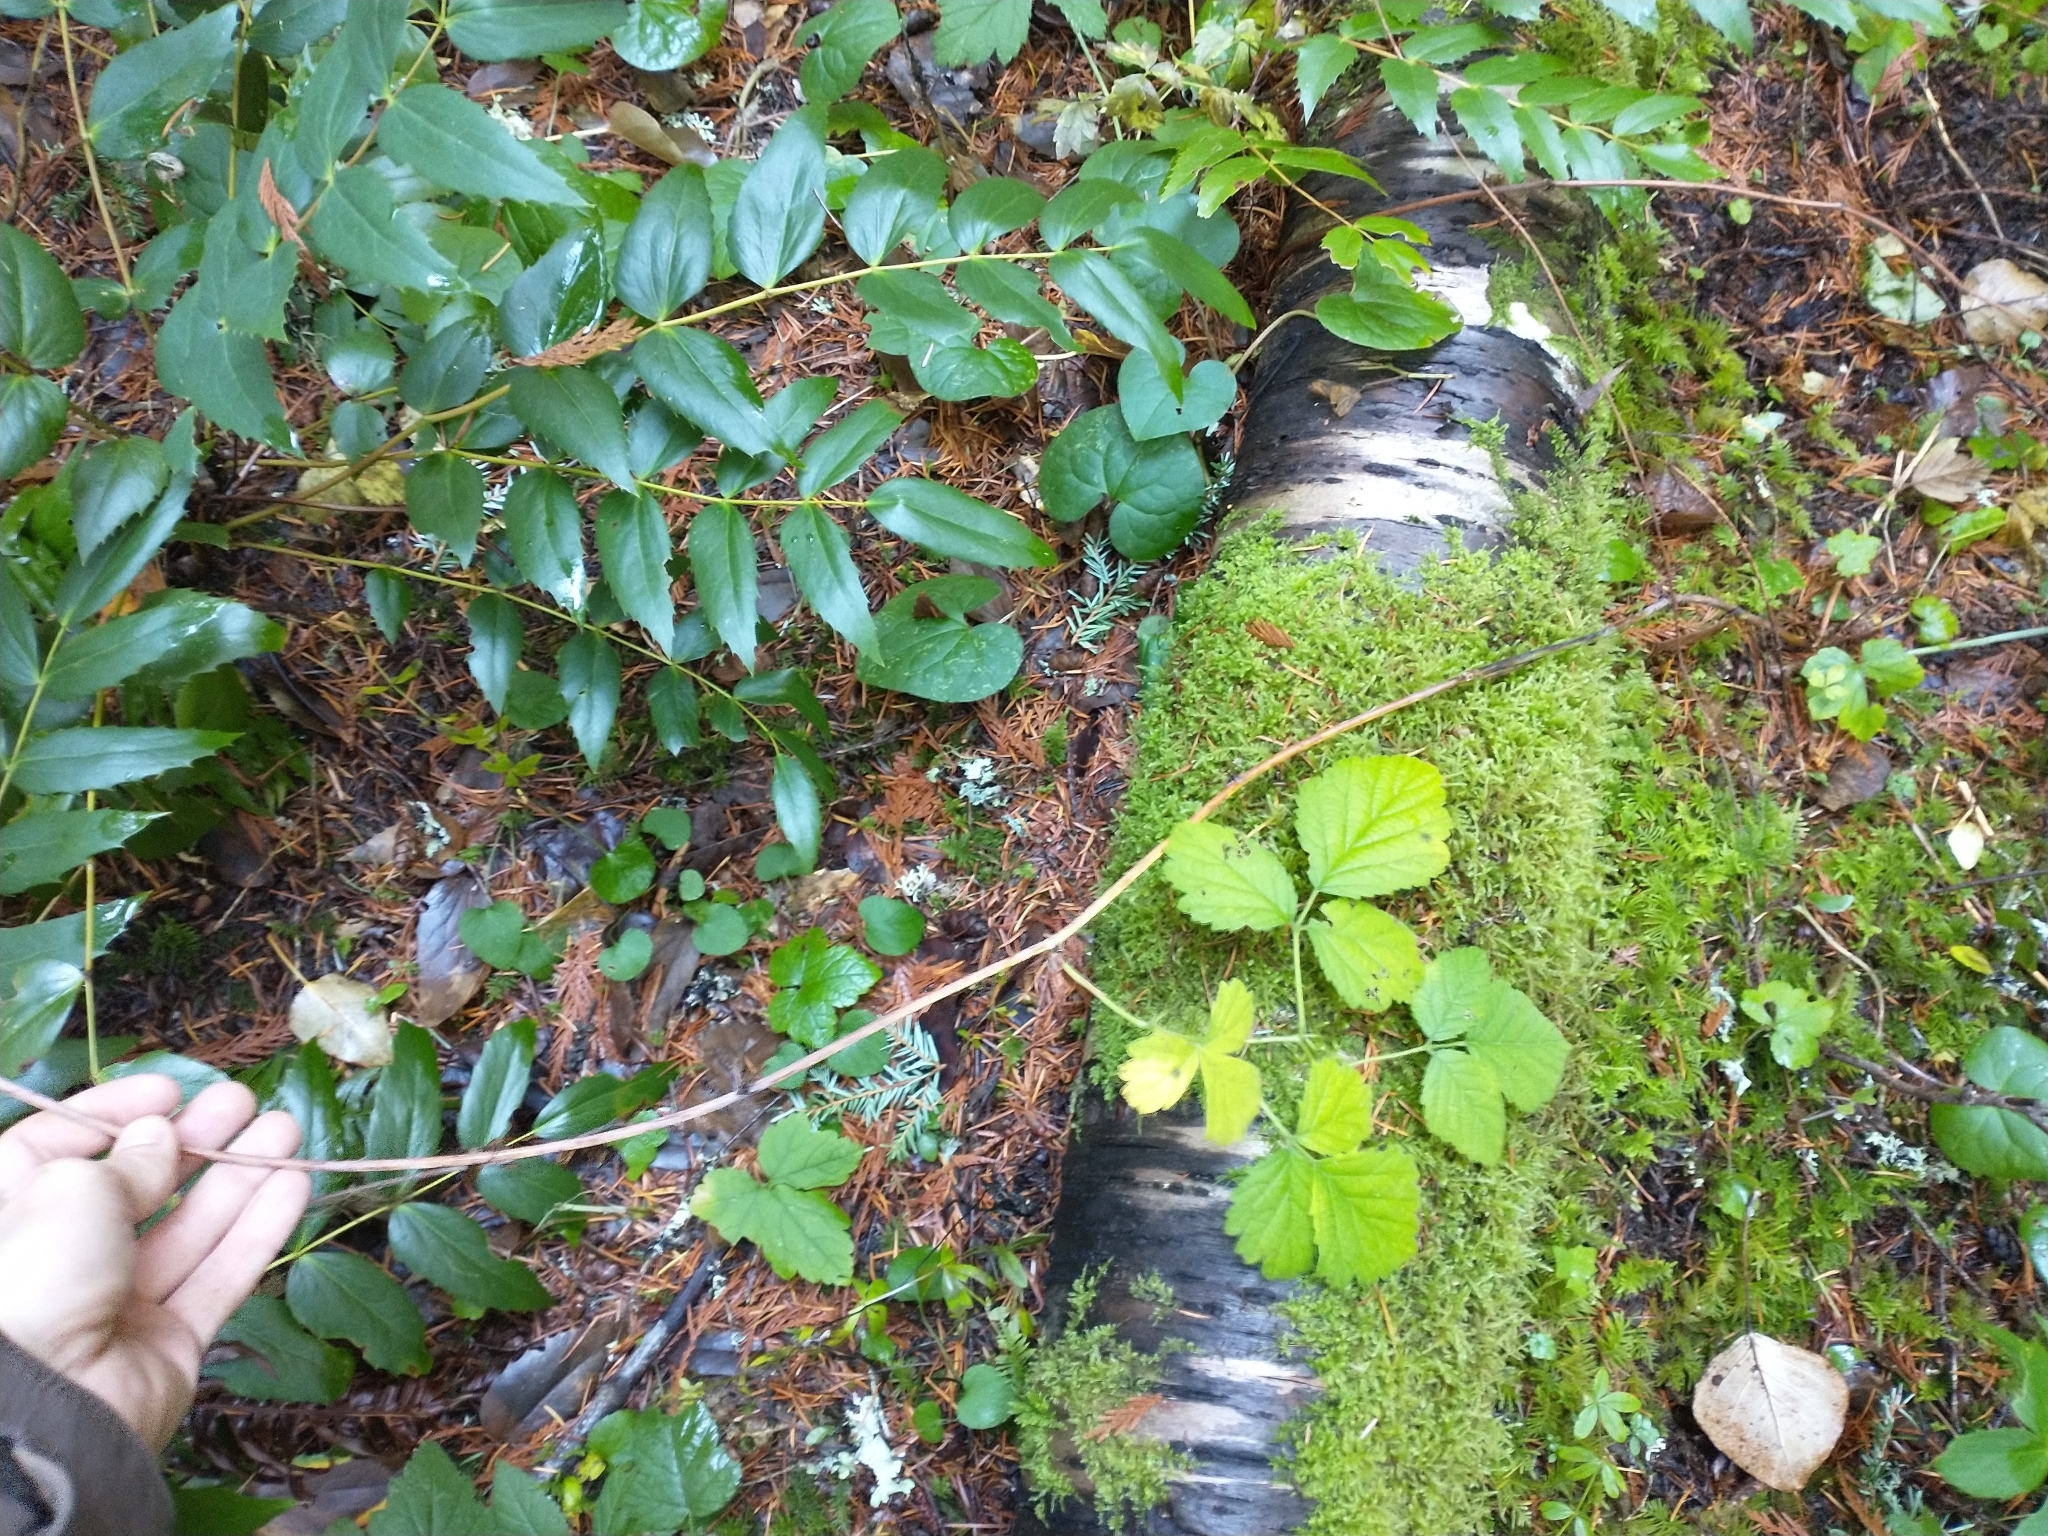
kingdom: Plantae
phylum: Tracheophyta
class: Magnoliopsida
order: Ranunculales
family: Berberidaceae
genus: Mahonia
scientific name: Mahonia nervosa
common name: Cascade oregon-grape
